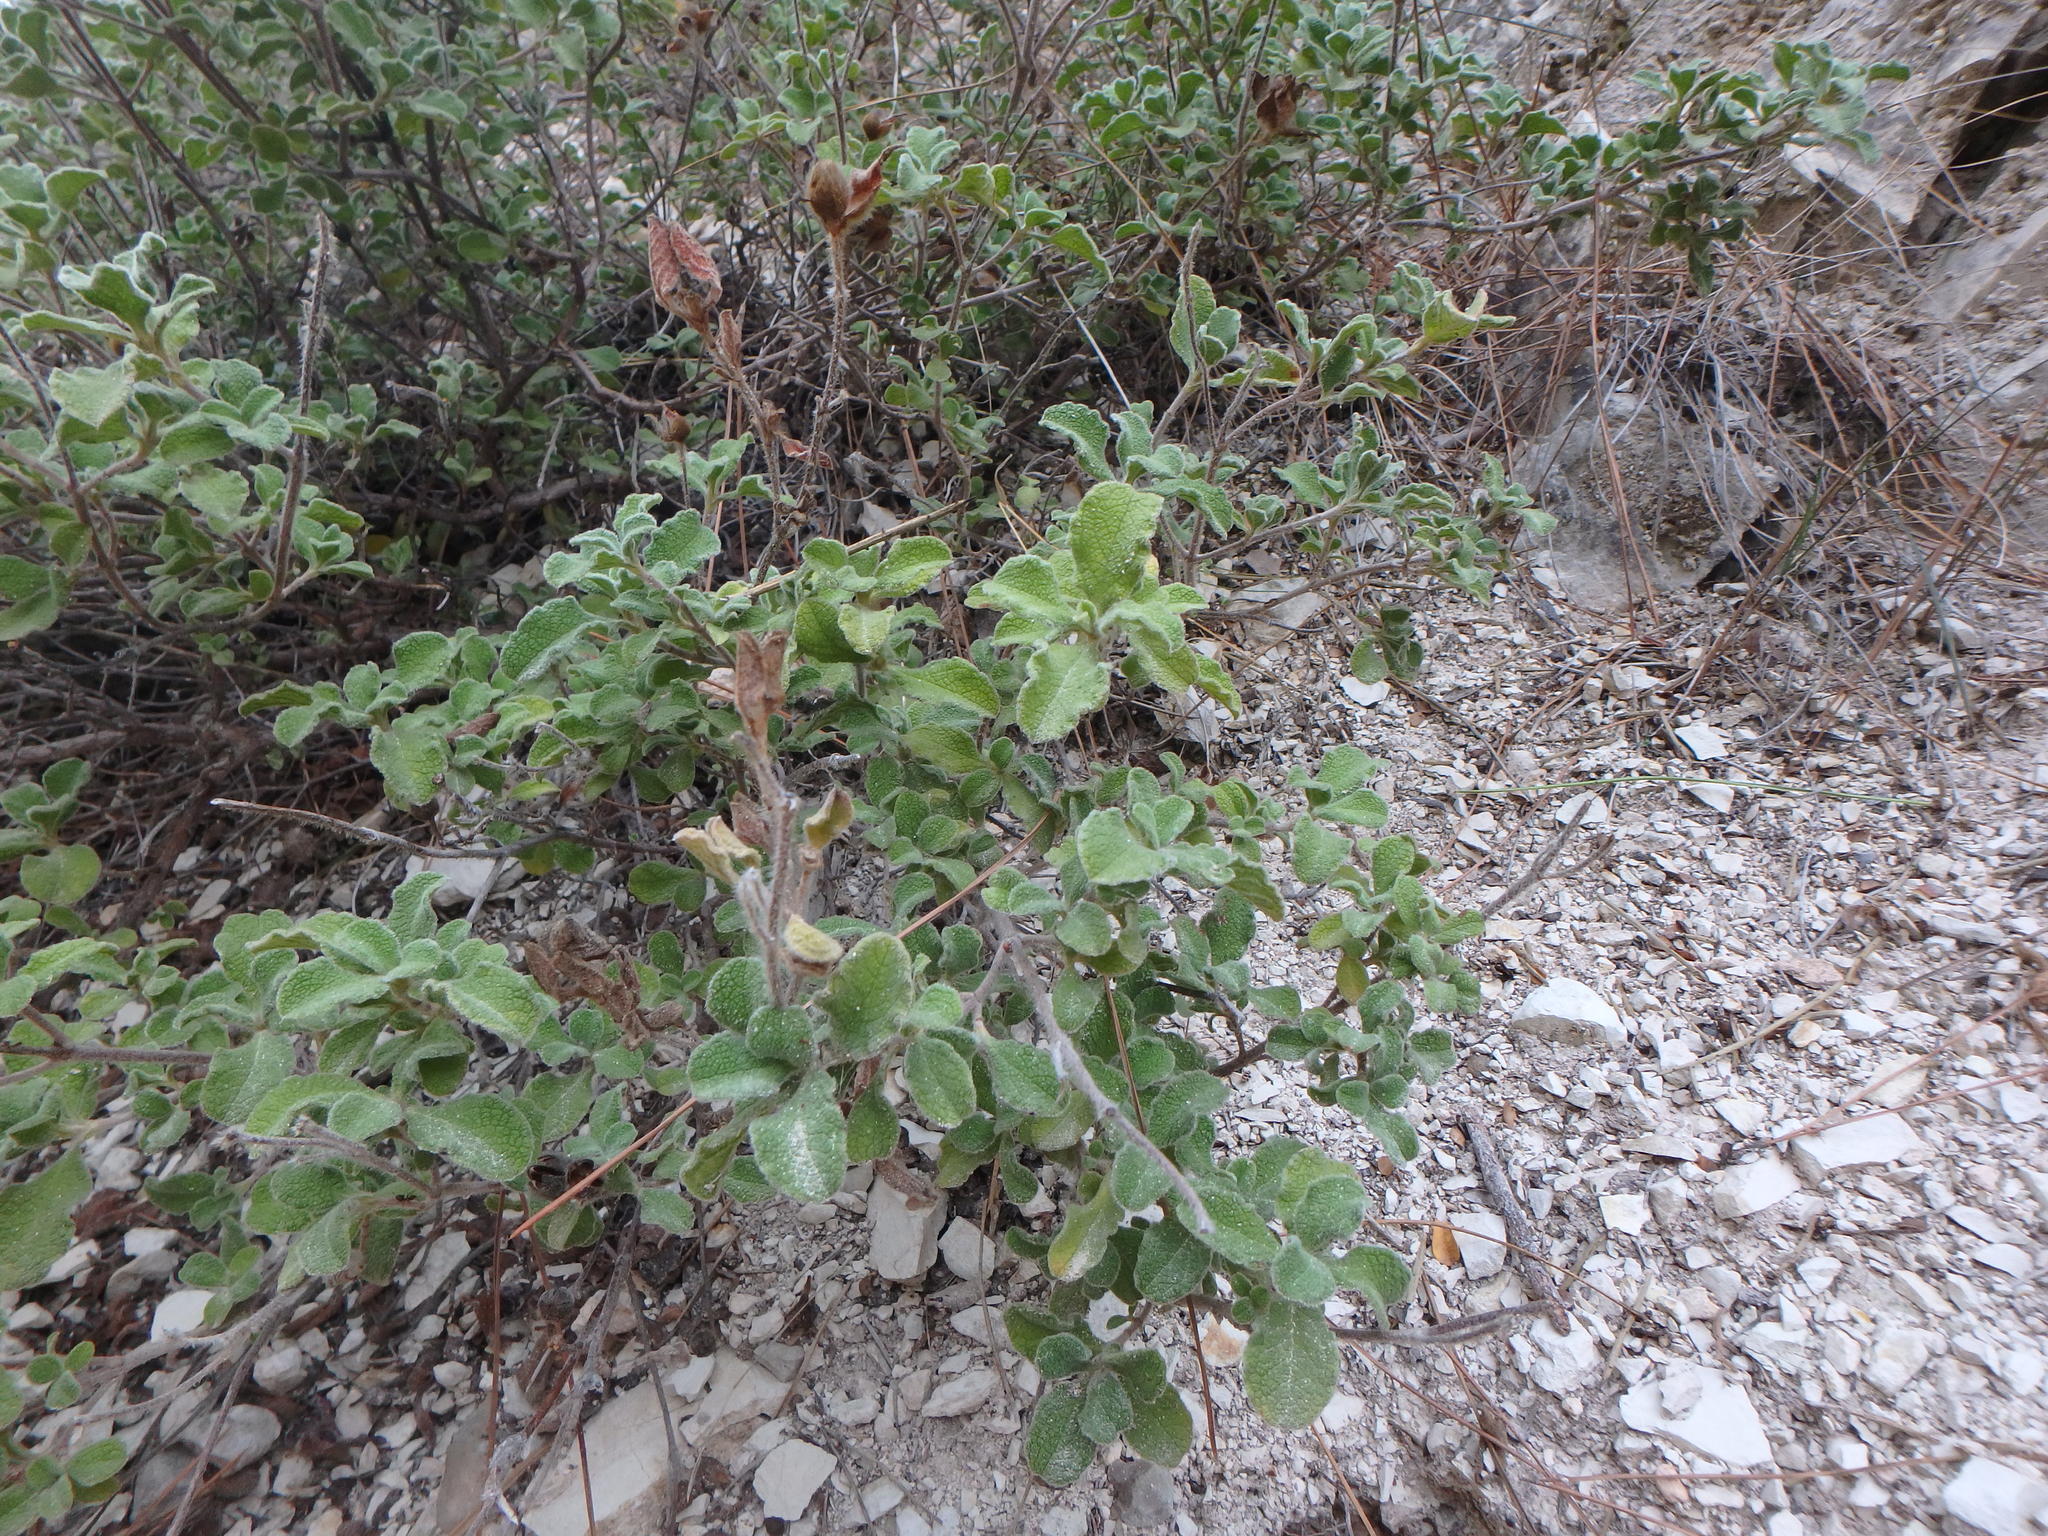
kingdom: Plantae
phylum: Tracheophyta
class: Magnoliopsida
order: Malvales
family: Cistaceae
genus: Cistus
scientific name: Cistus creticus
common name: Cretan rockrose
